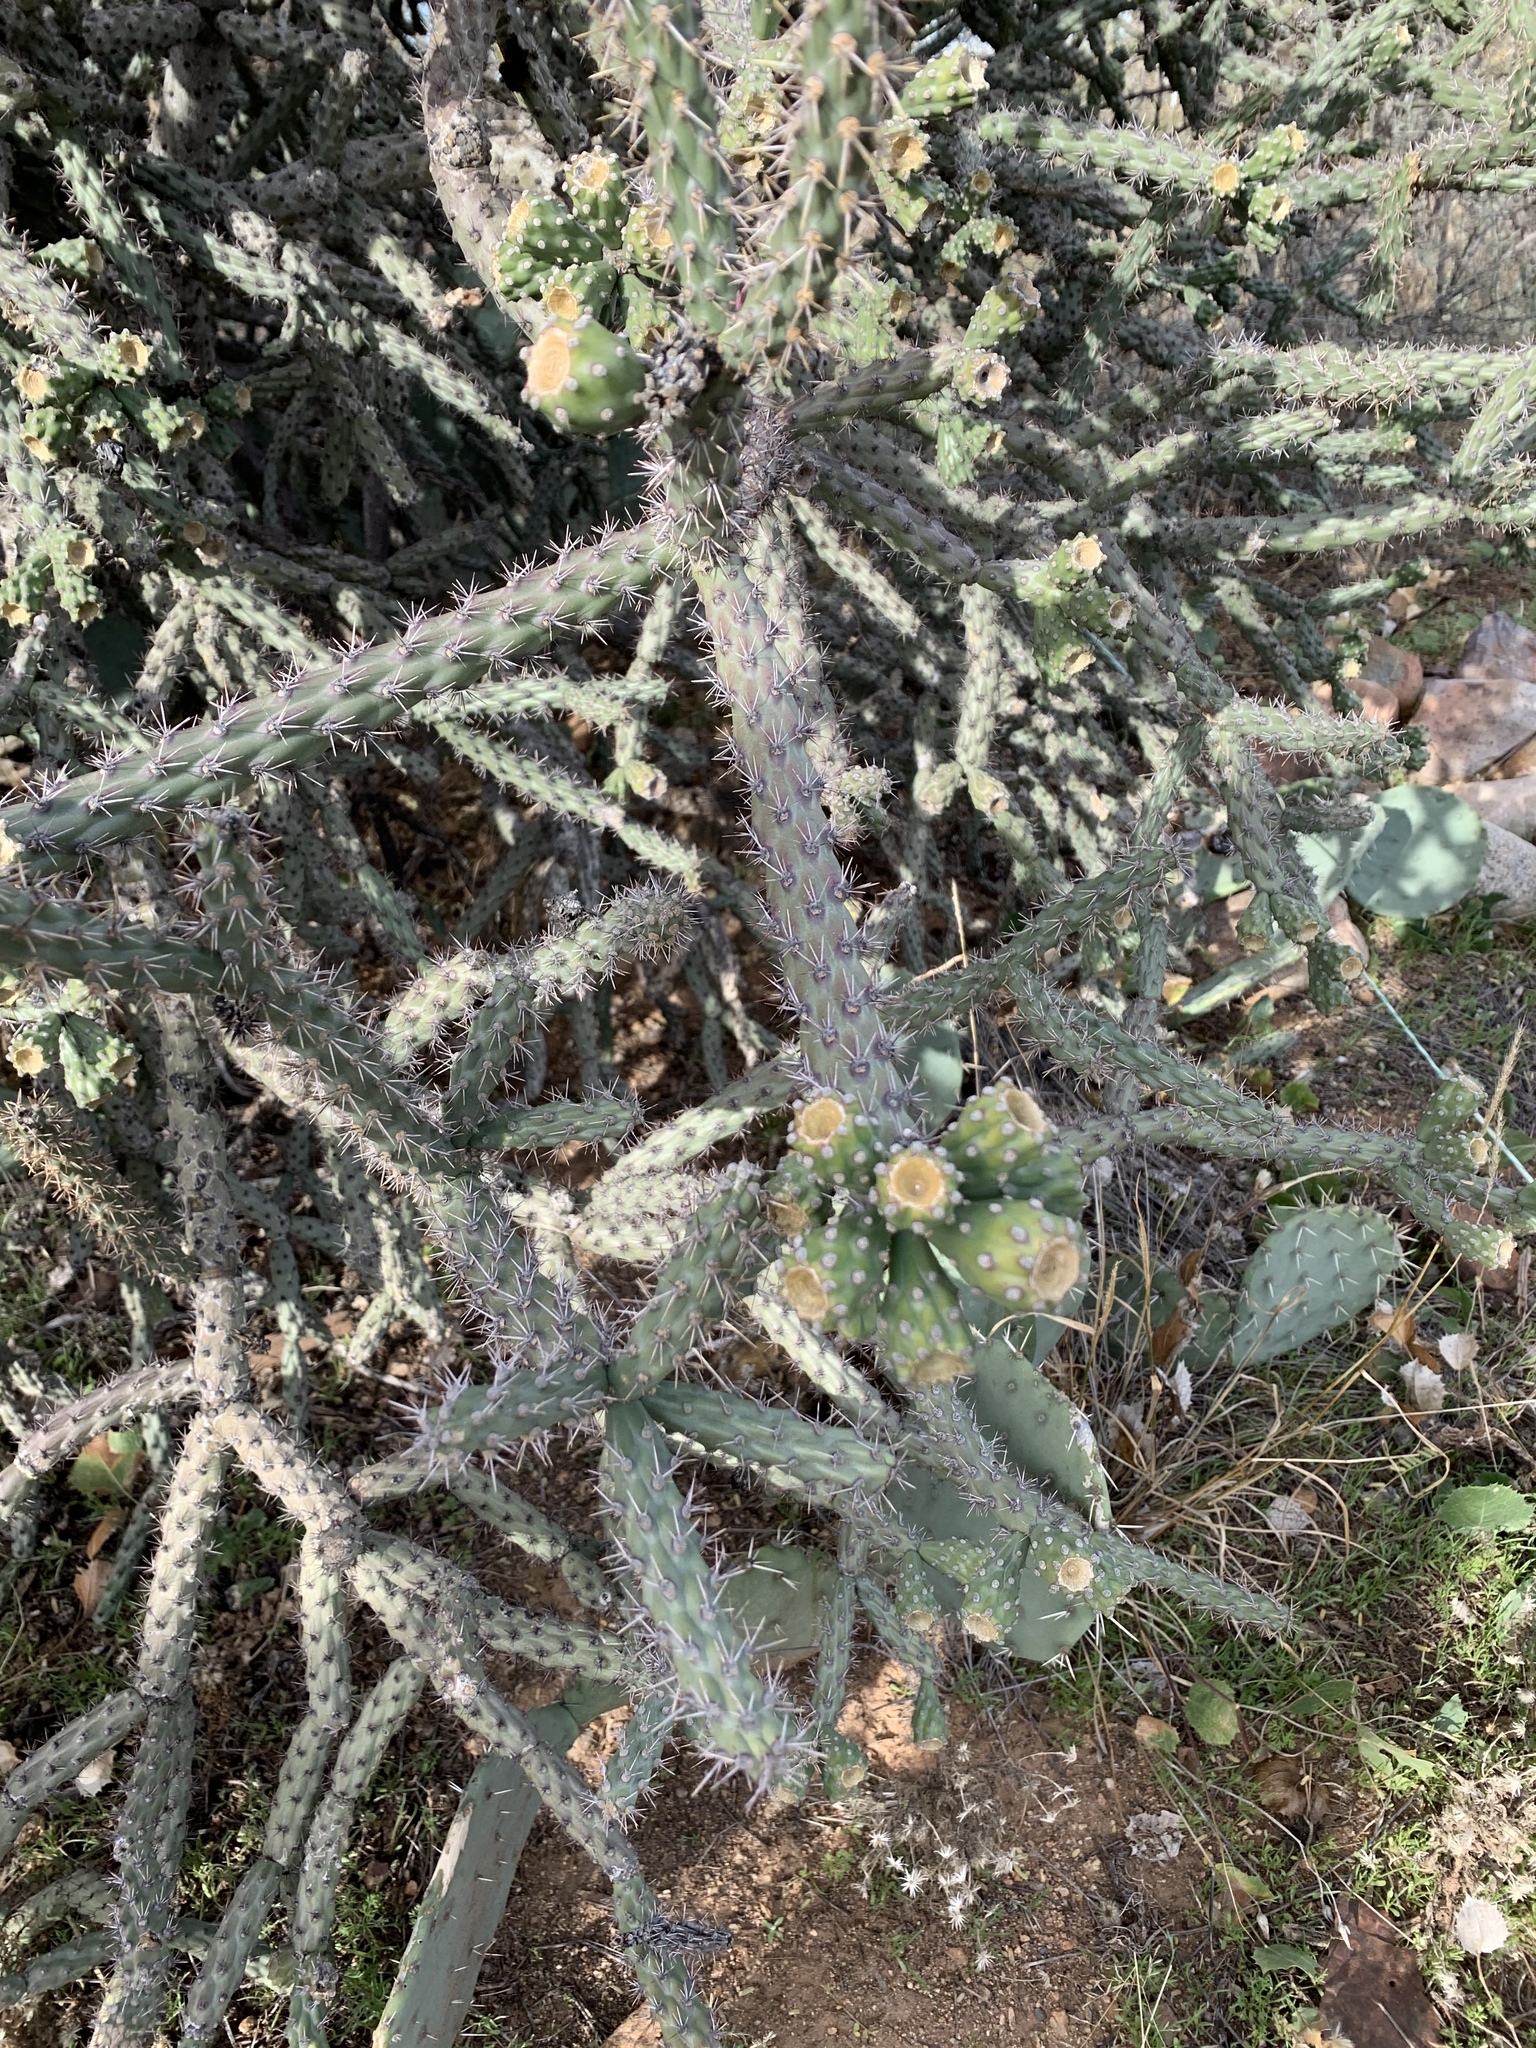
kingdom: Plantae
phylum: Tracheophyta
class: Magnoliopsida
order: Caryophyllales
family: Cactaceae
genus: Cylindropuntia
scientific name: Cylindropuntia thurberi
